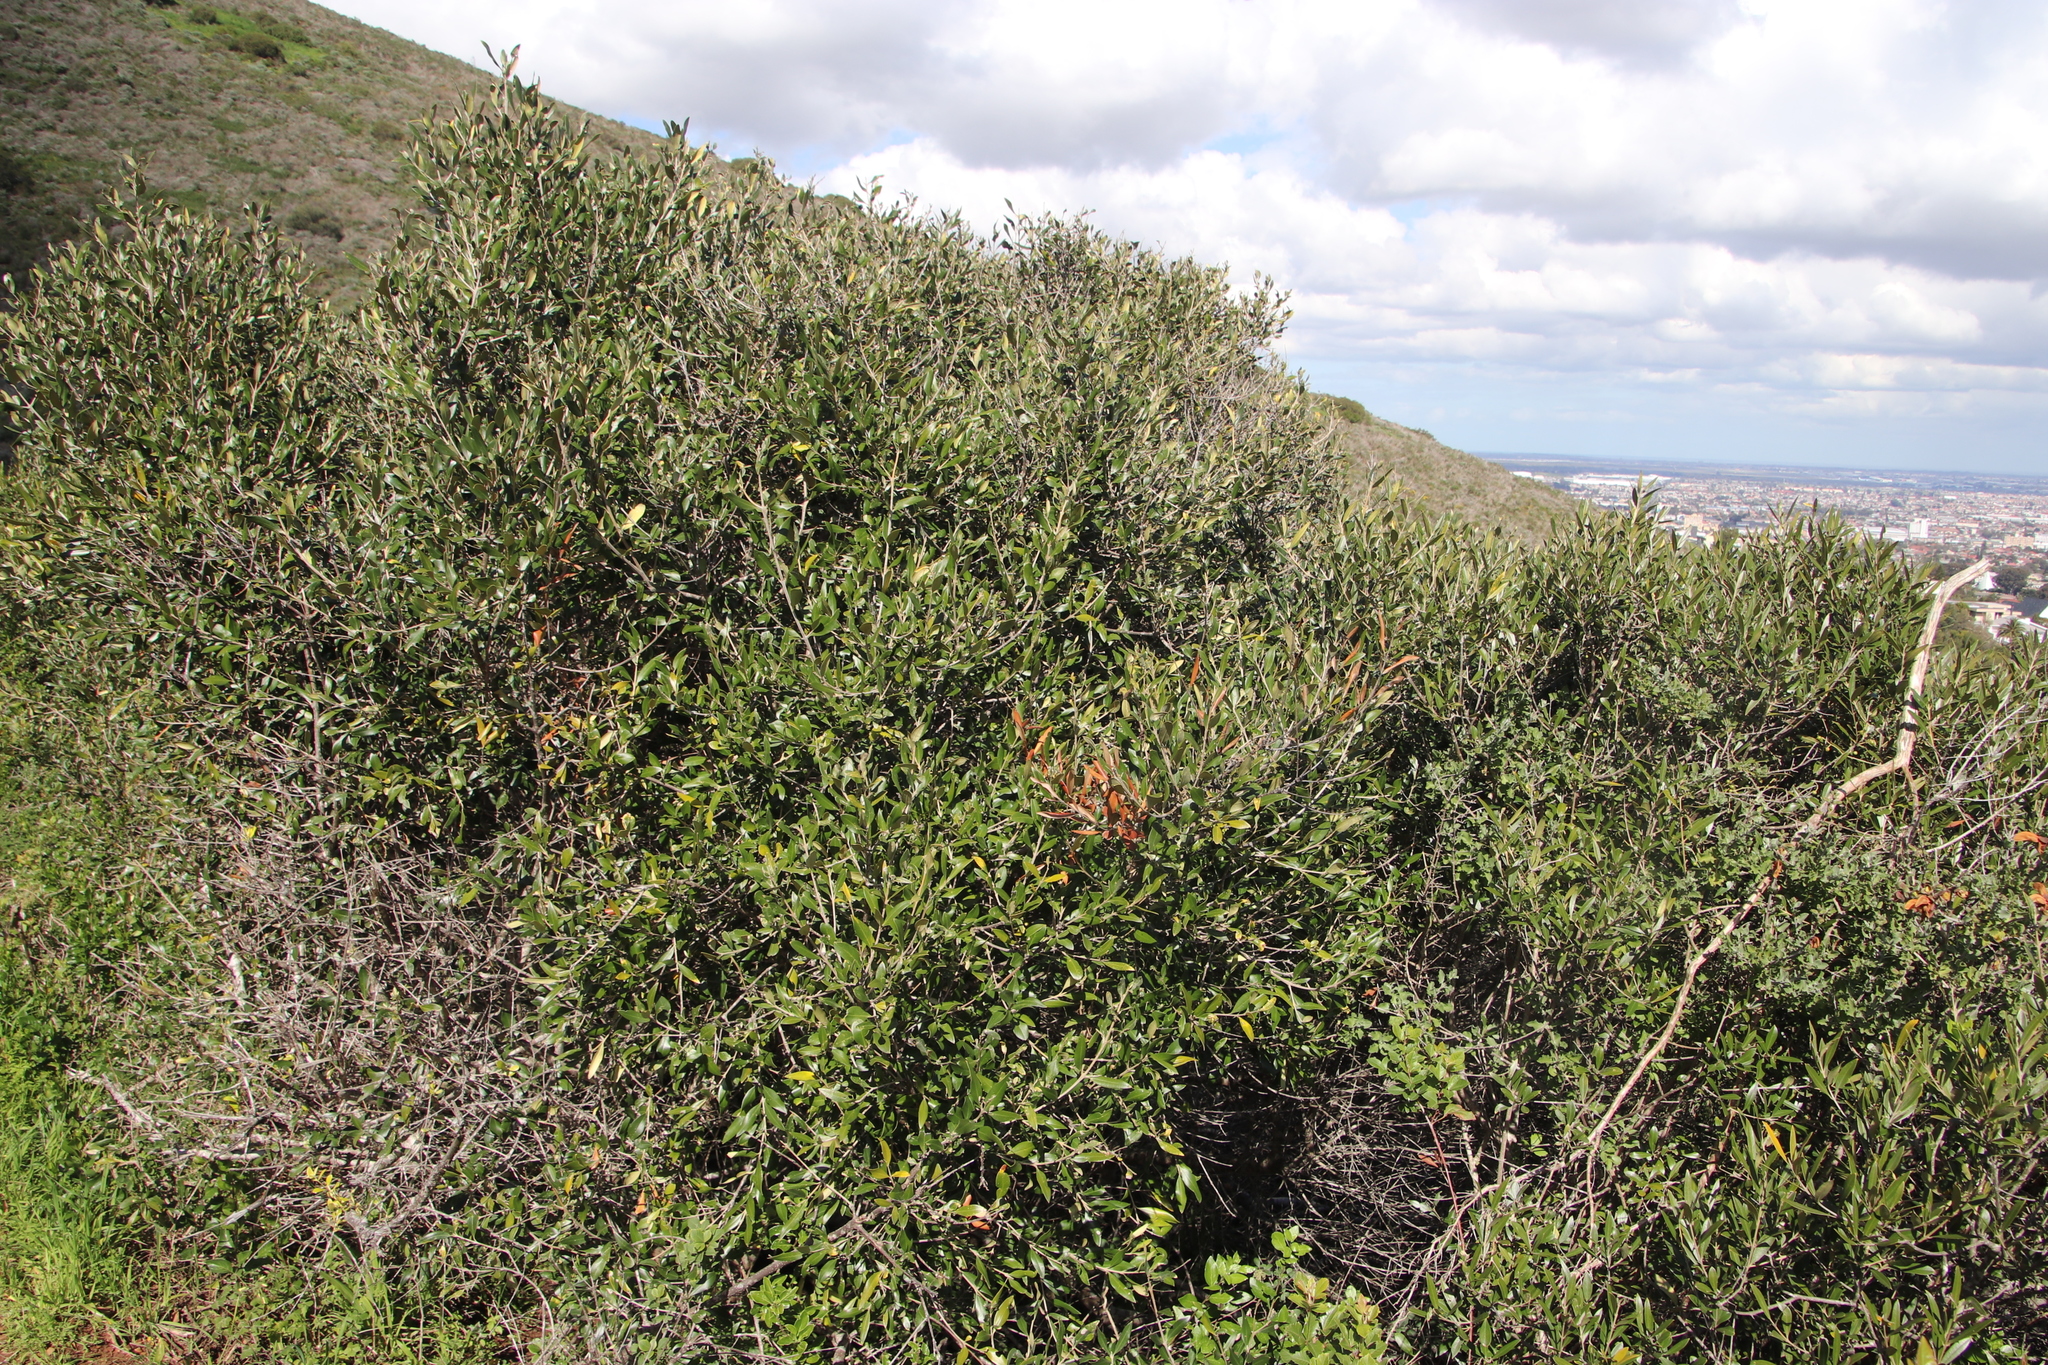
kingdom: Plantae
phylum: Tracheophyta
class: Magnoliopsida
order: Lamiales
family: Oleaceae
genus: Olea
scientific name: Olea europaea
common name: Olive
